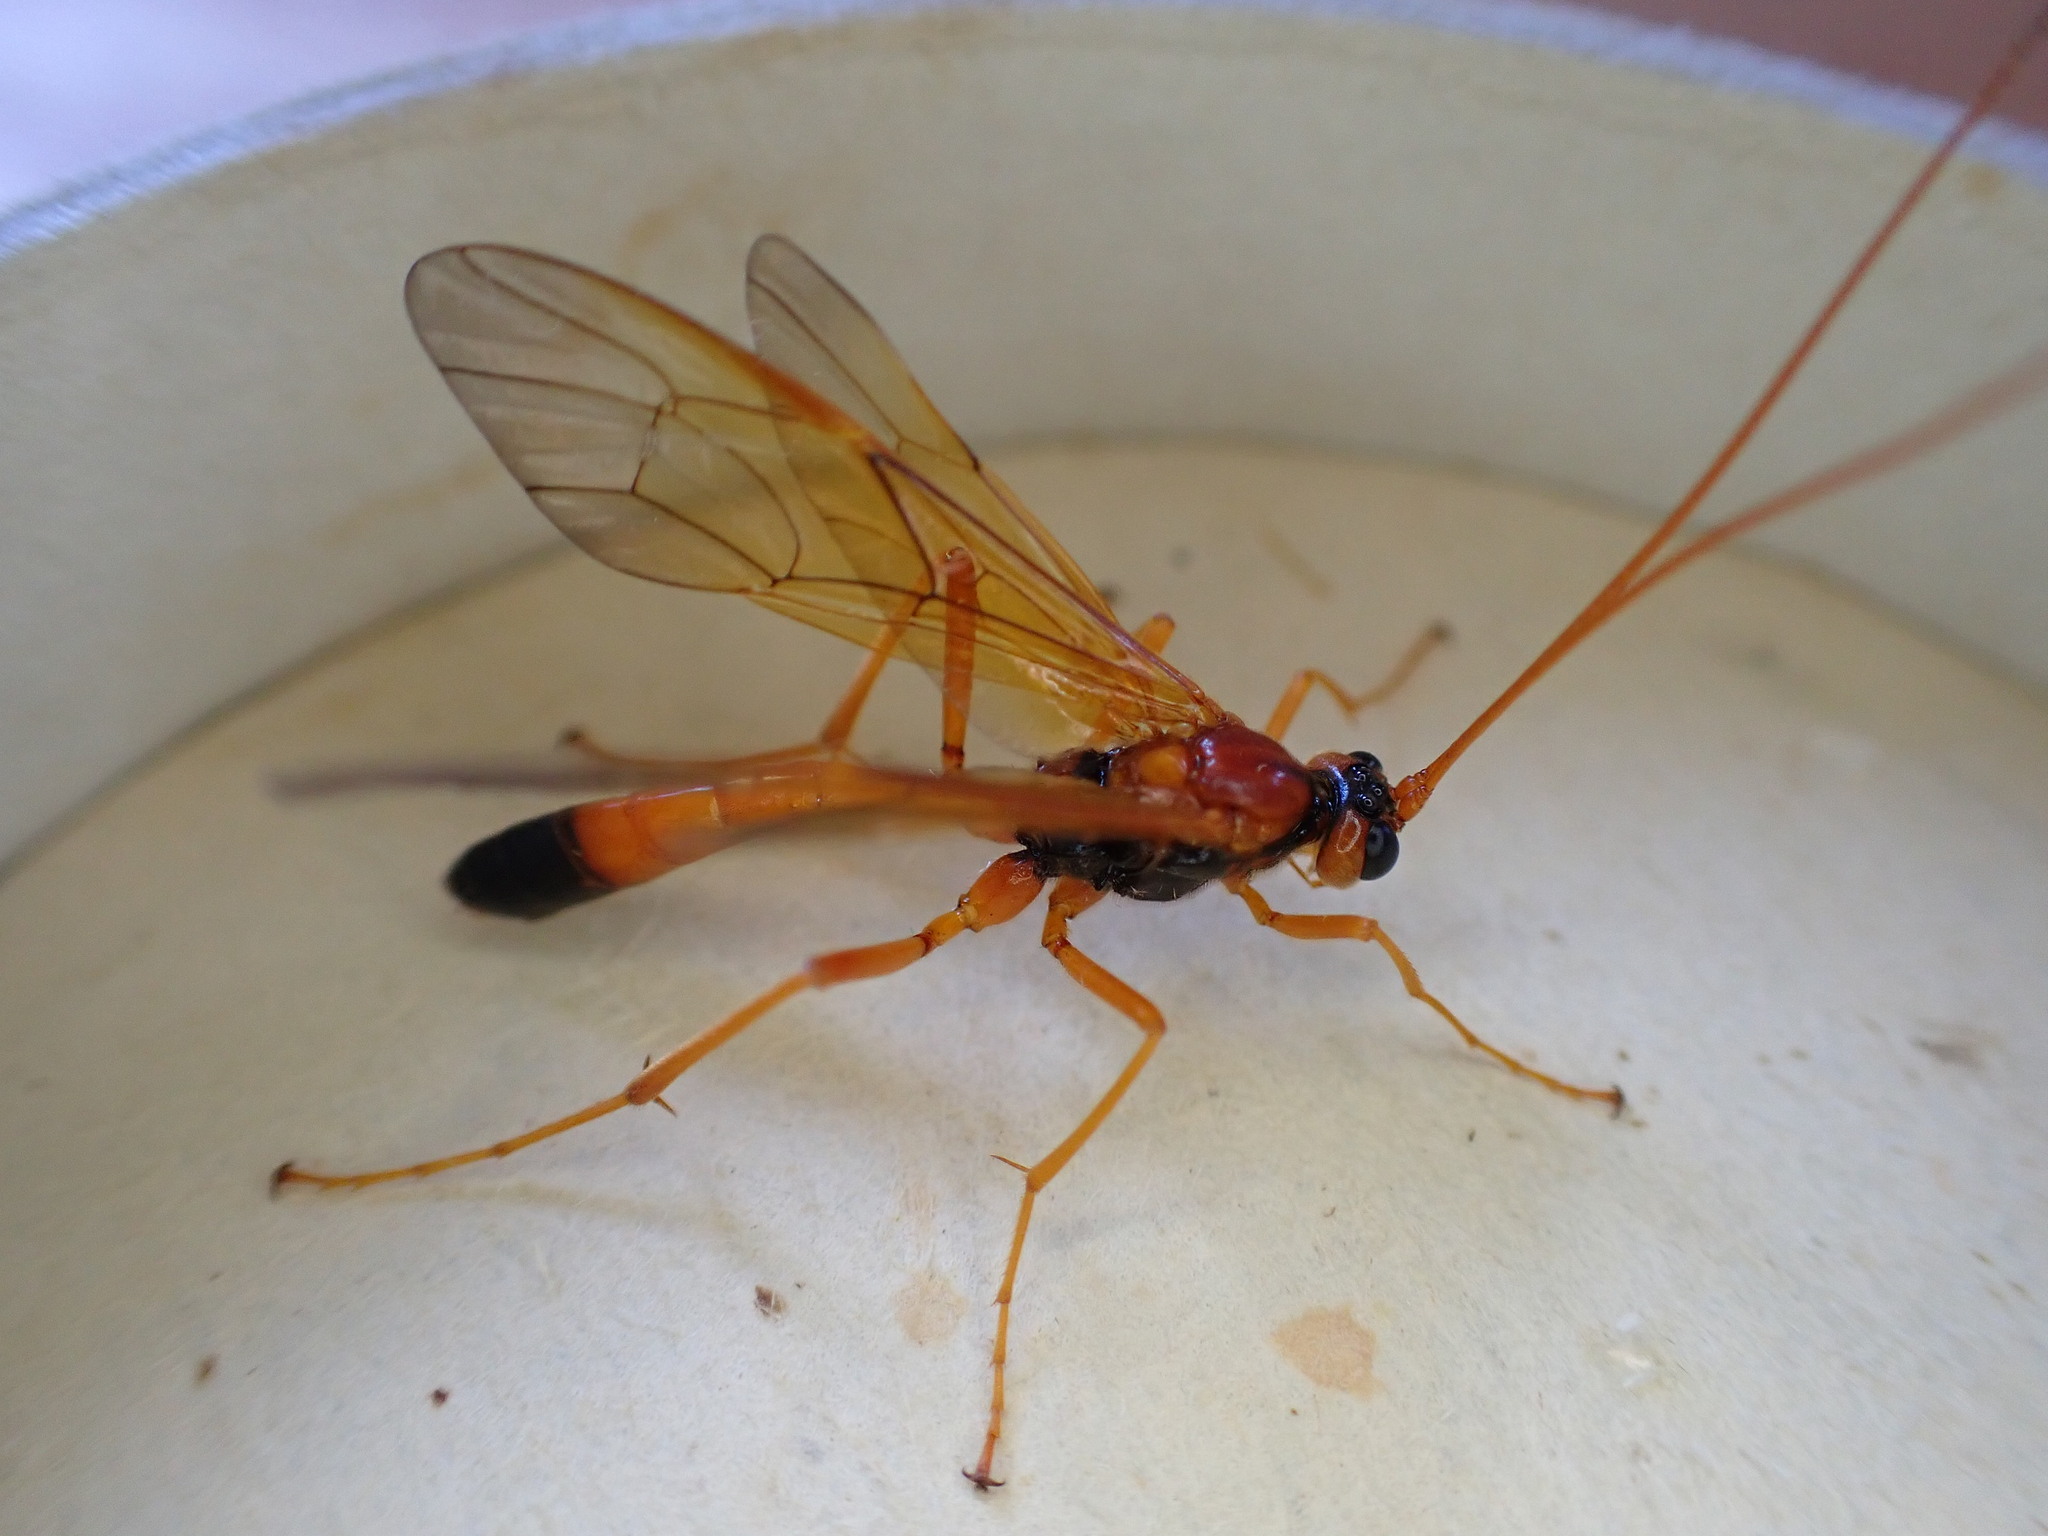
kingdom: Animalia
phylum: Arthropoda
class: Insecta
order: Hymenoptera
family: Ichneumonidae
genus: Opheltes
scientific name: Opheltes glaucopterus
